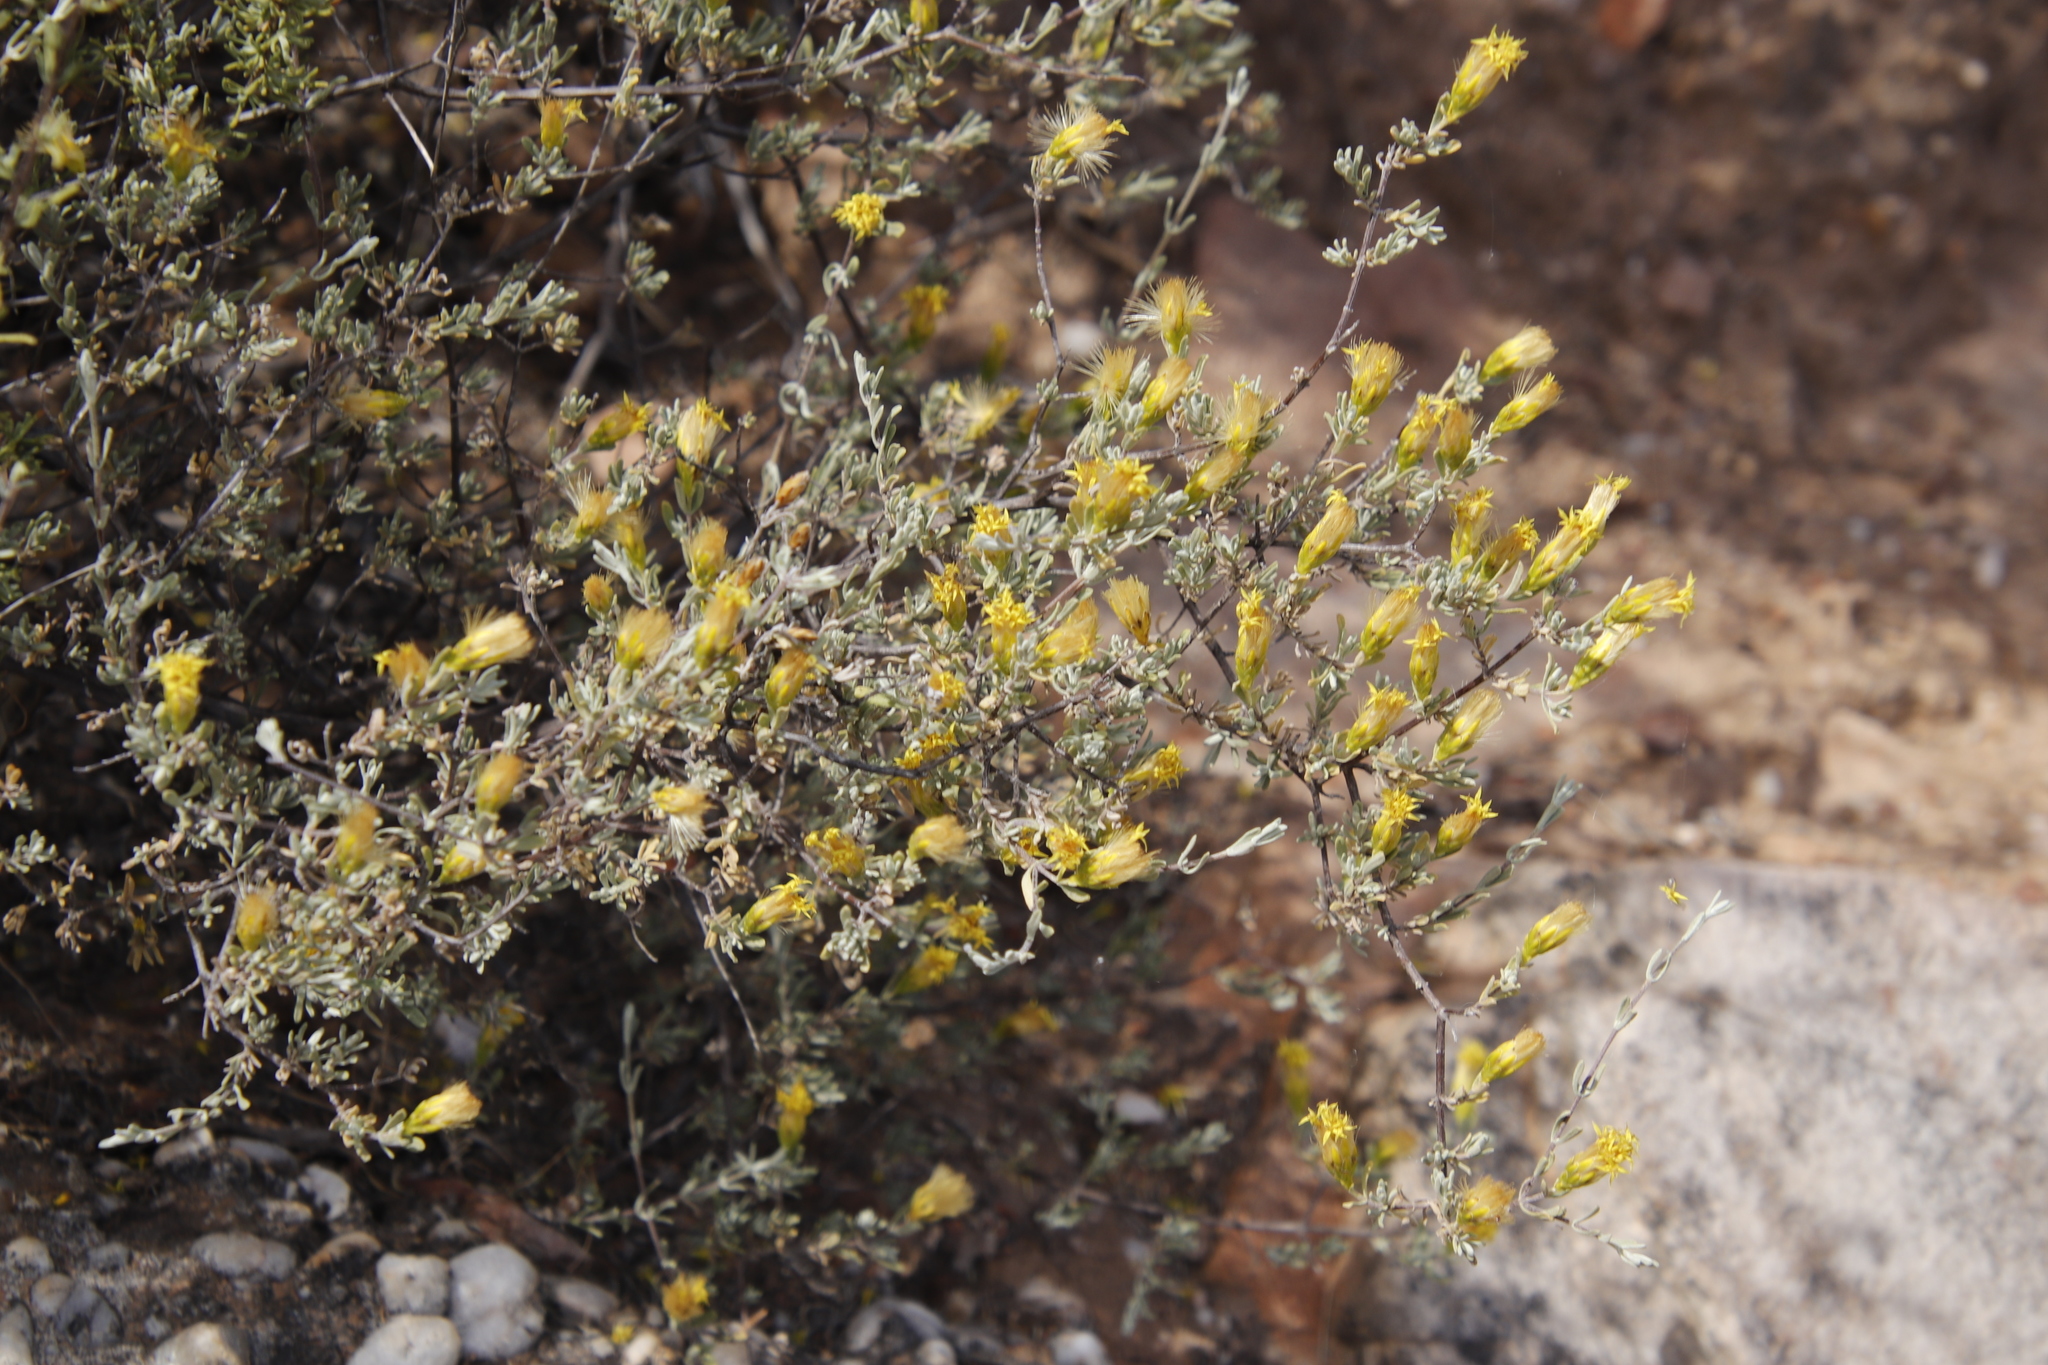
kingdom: Plantae
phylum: Tracheophyta
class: Magnoliopsida
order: Asterales
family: Asteraceae
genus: Pteronia
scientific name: Pteronia incana
